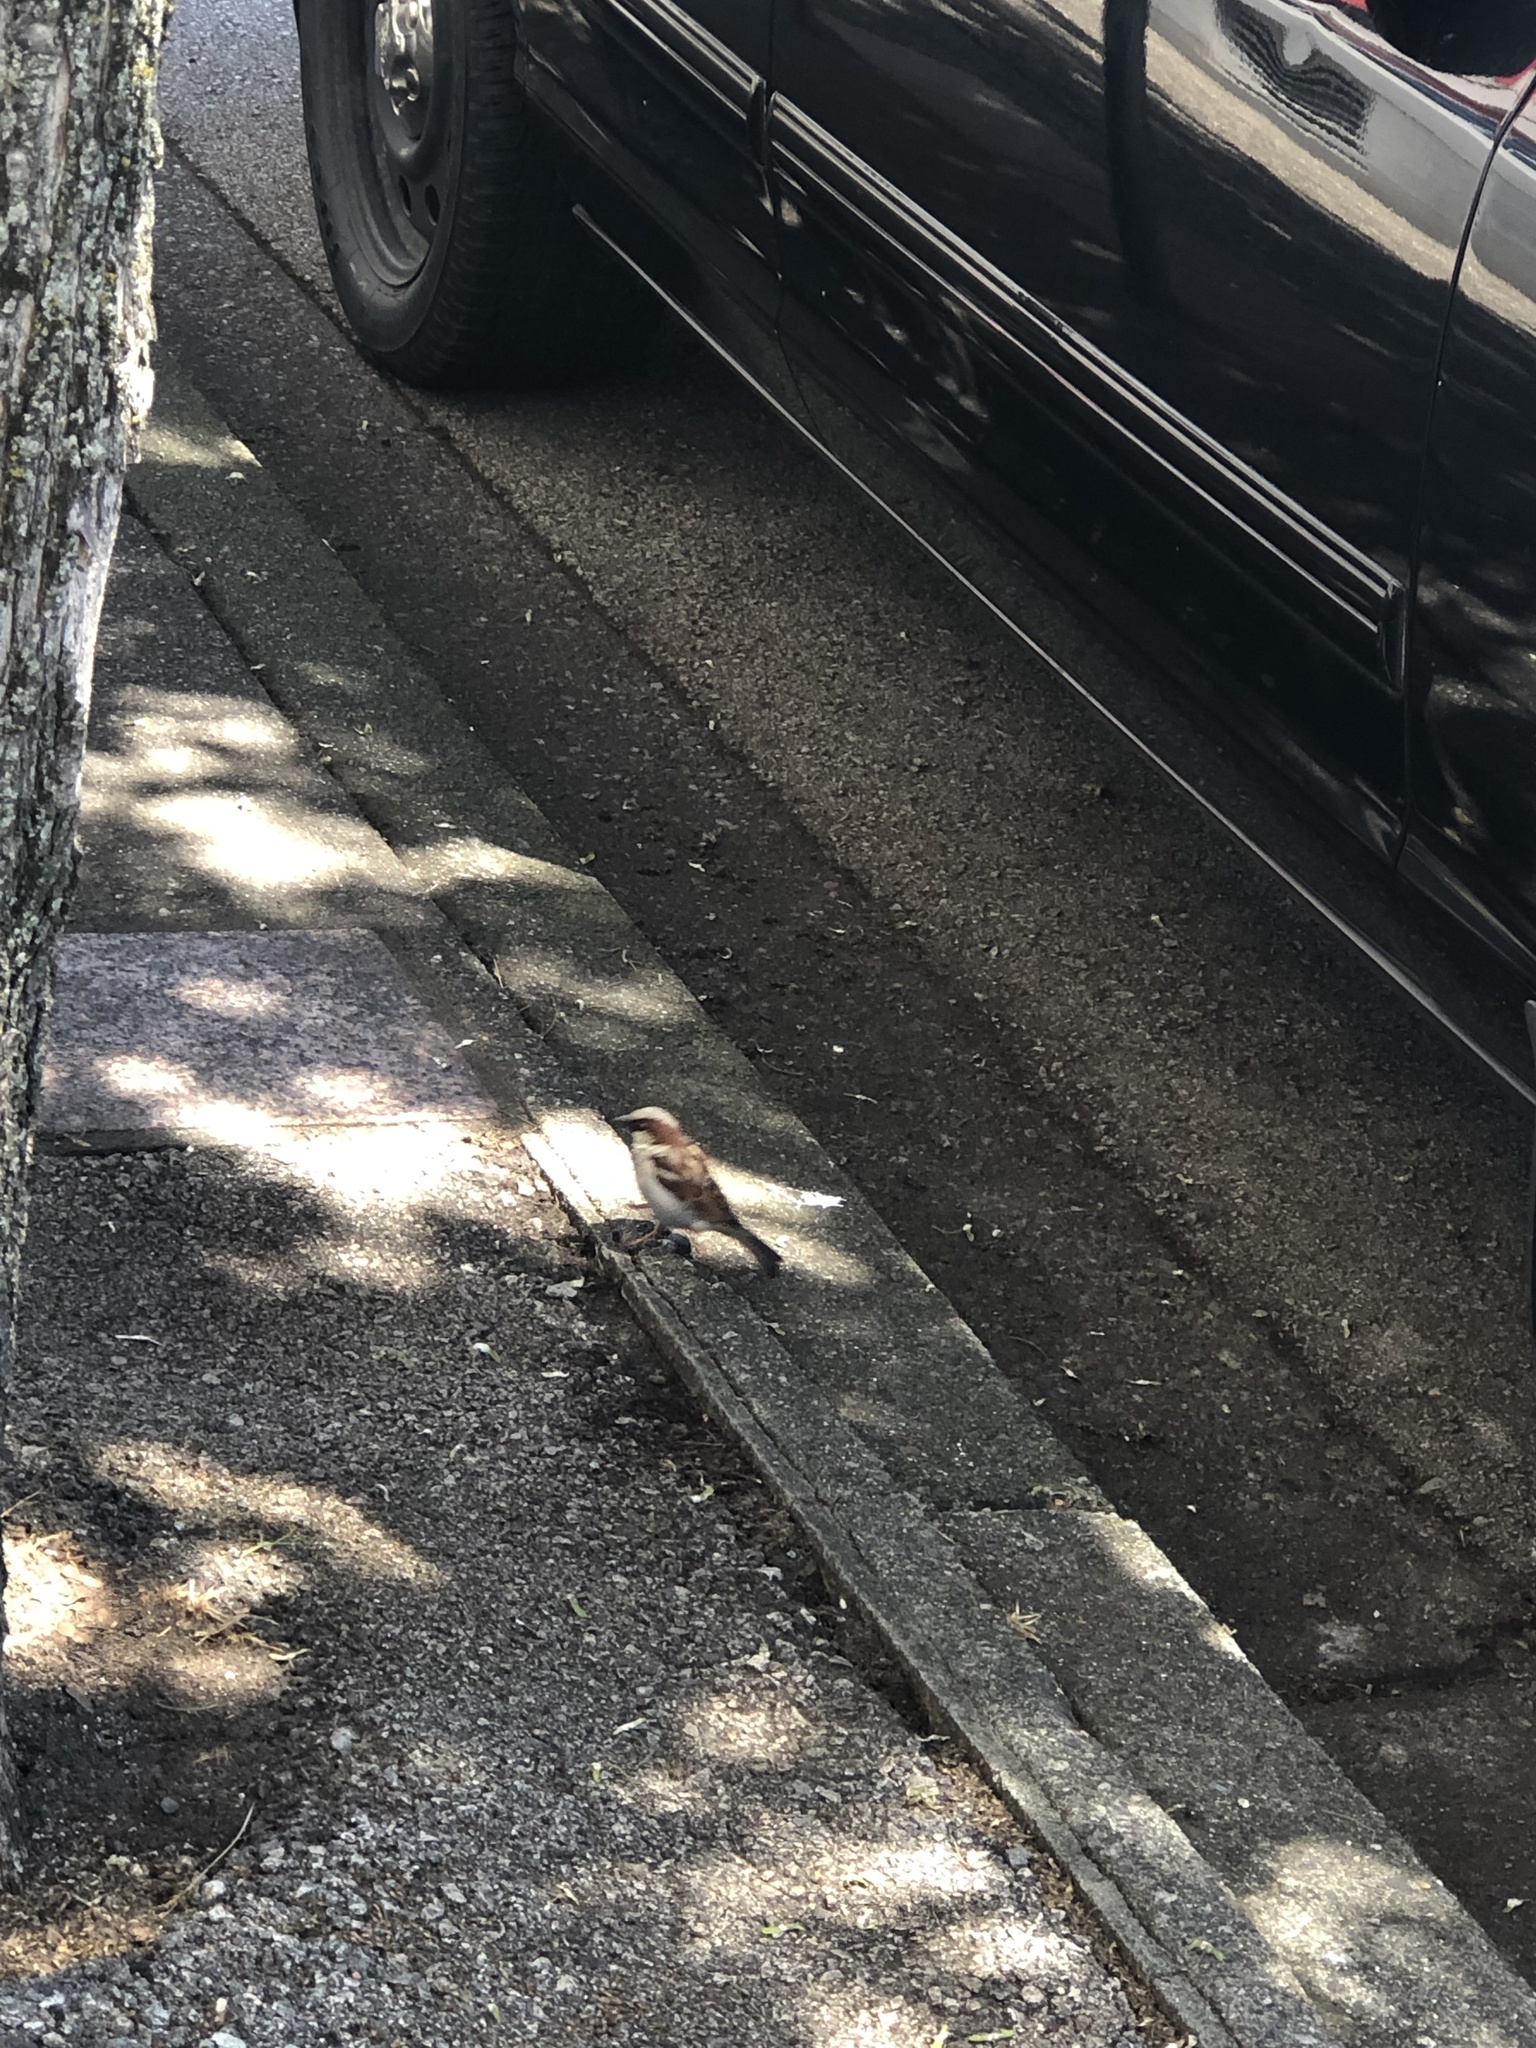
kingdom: Animalia
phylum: Chordata
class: Aves
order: Passeriformes
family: Passeridae
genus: Passer
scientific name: Passer domesticus
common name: House sparrow
